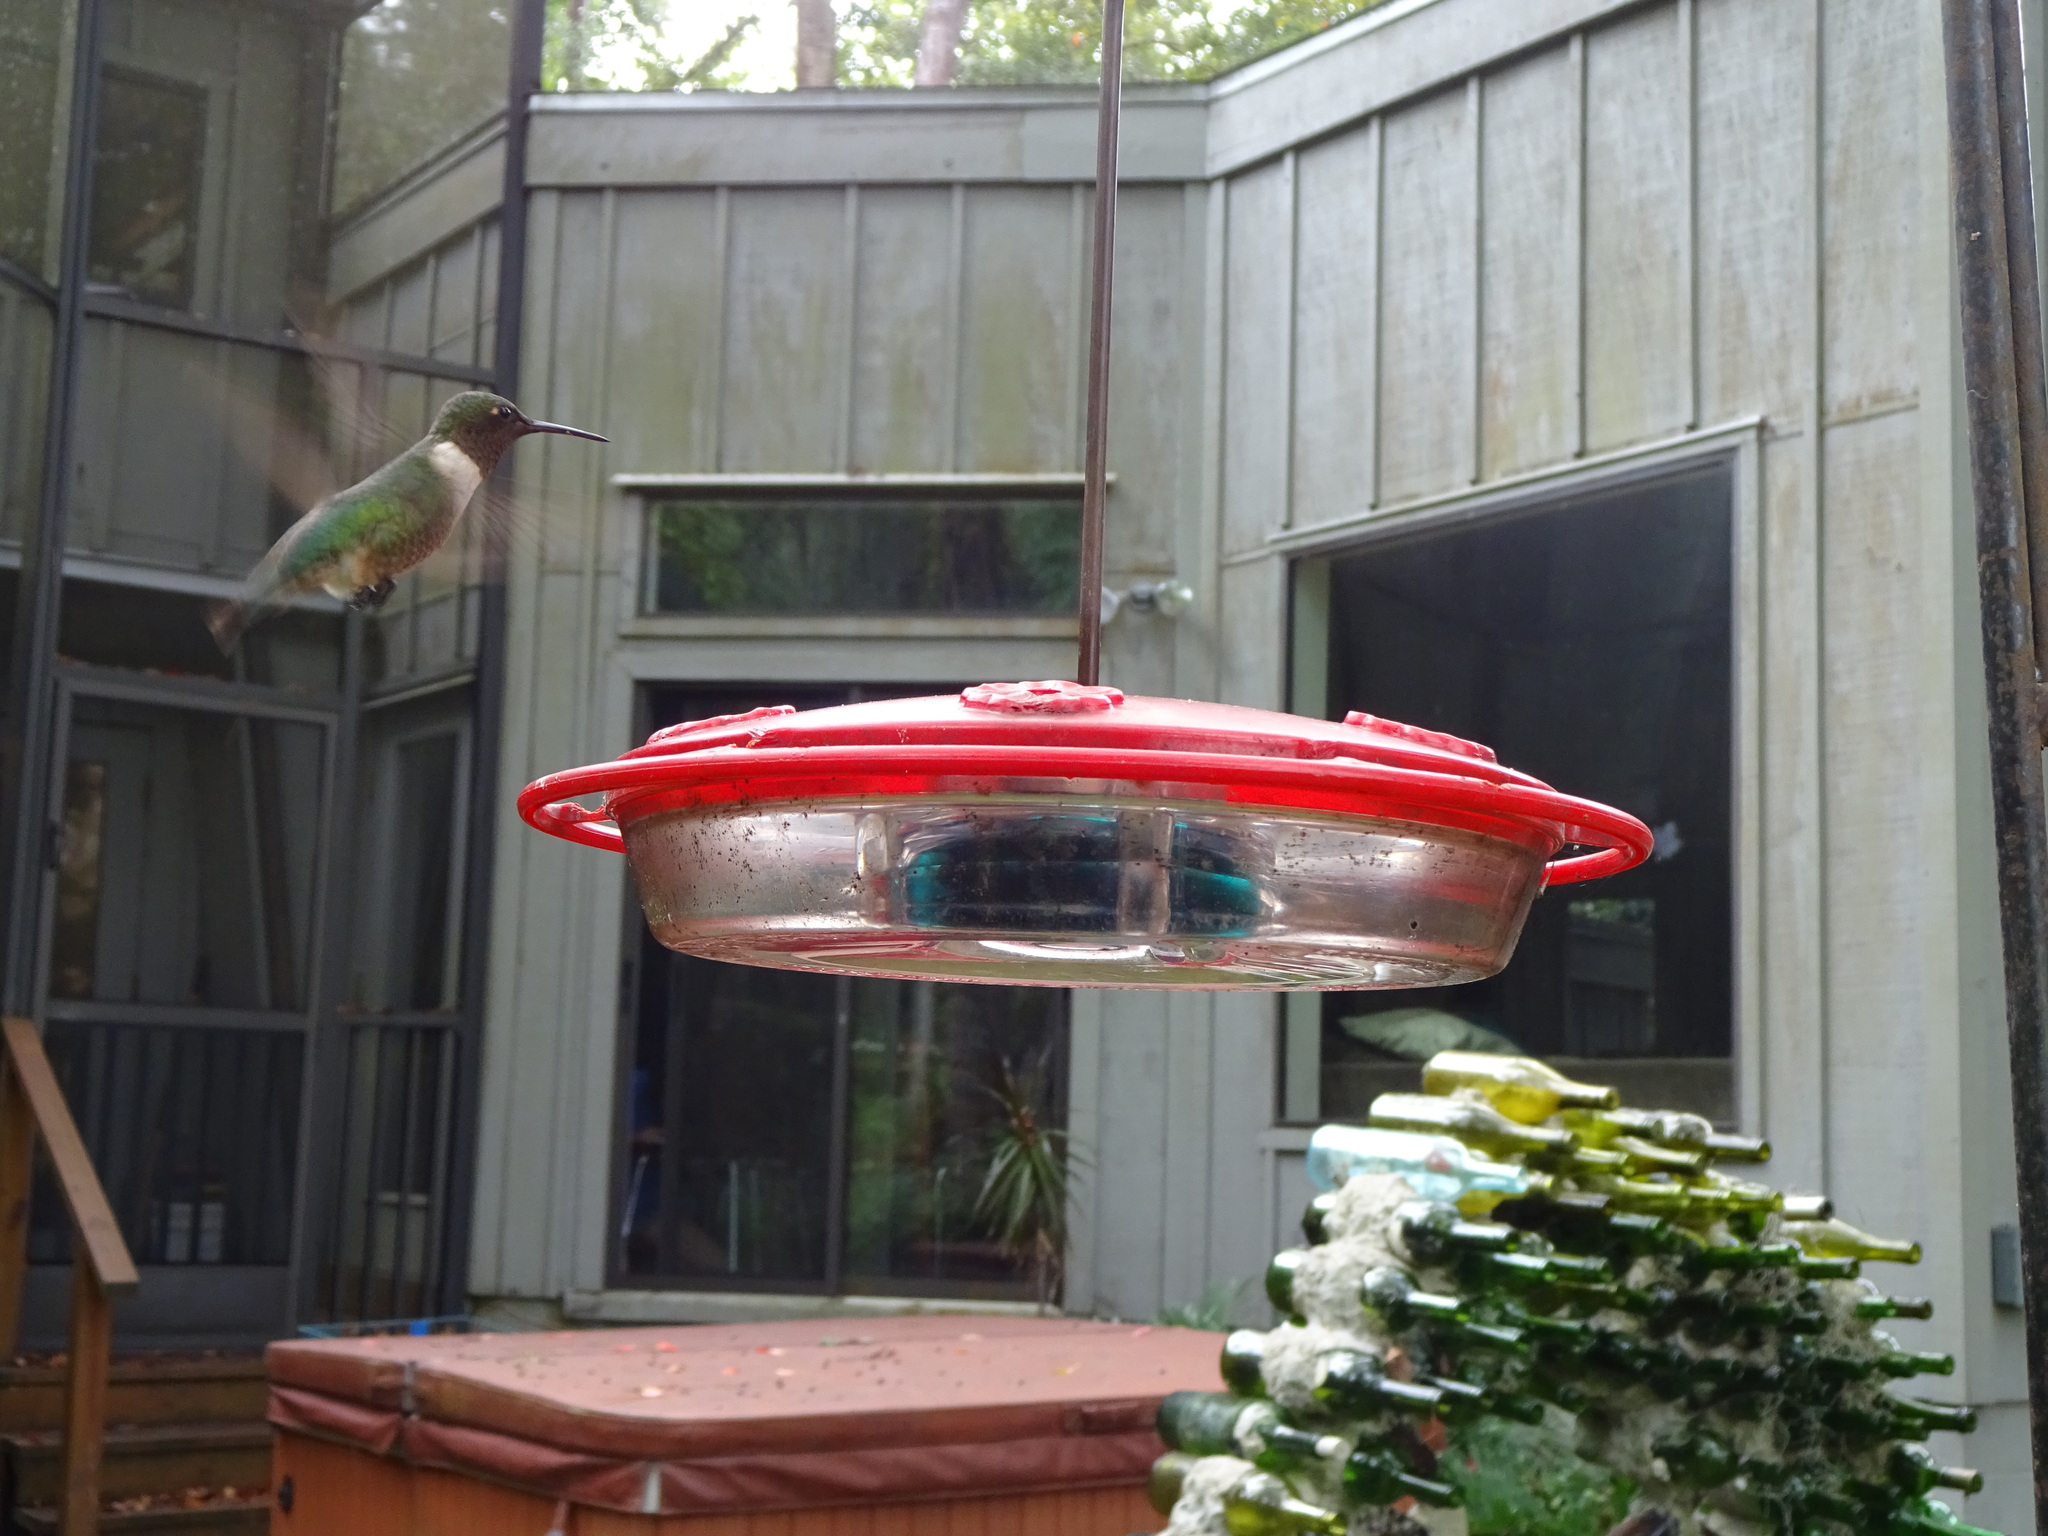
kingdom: Animalia
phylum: Chordata
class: Aves
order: Apodiformes
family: Trochilidae
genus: Archilochus
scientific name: Archilochus colubris
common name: Ruby-throated hummingbird
